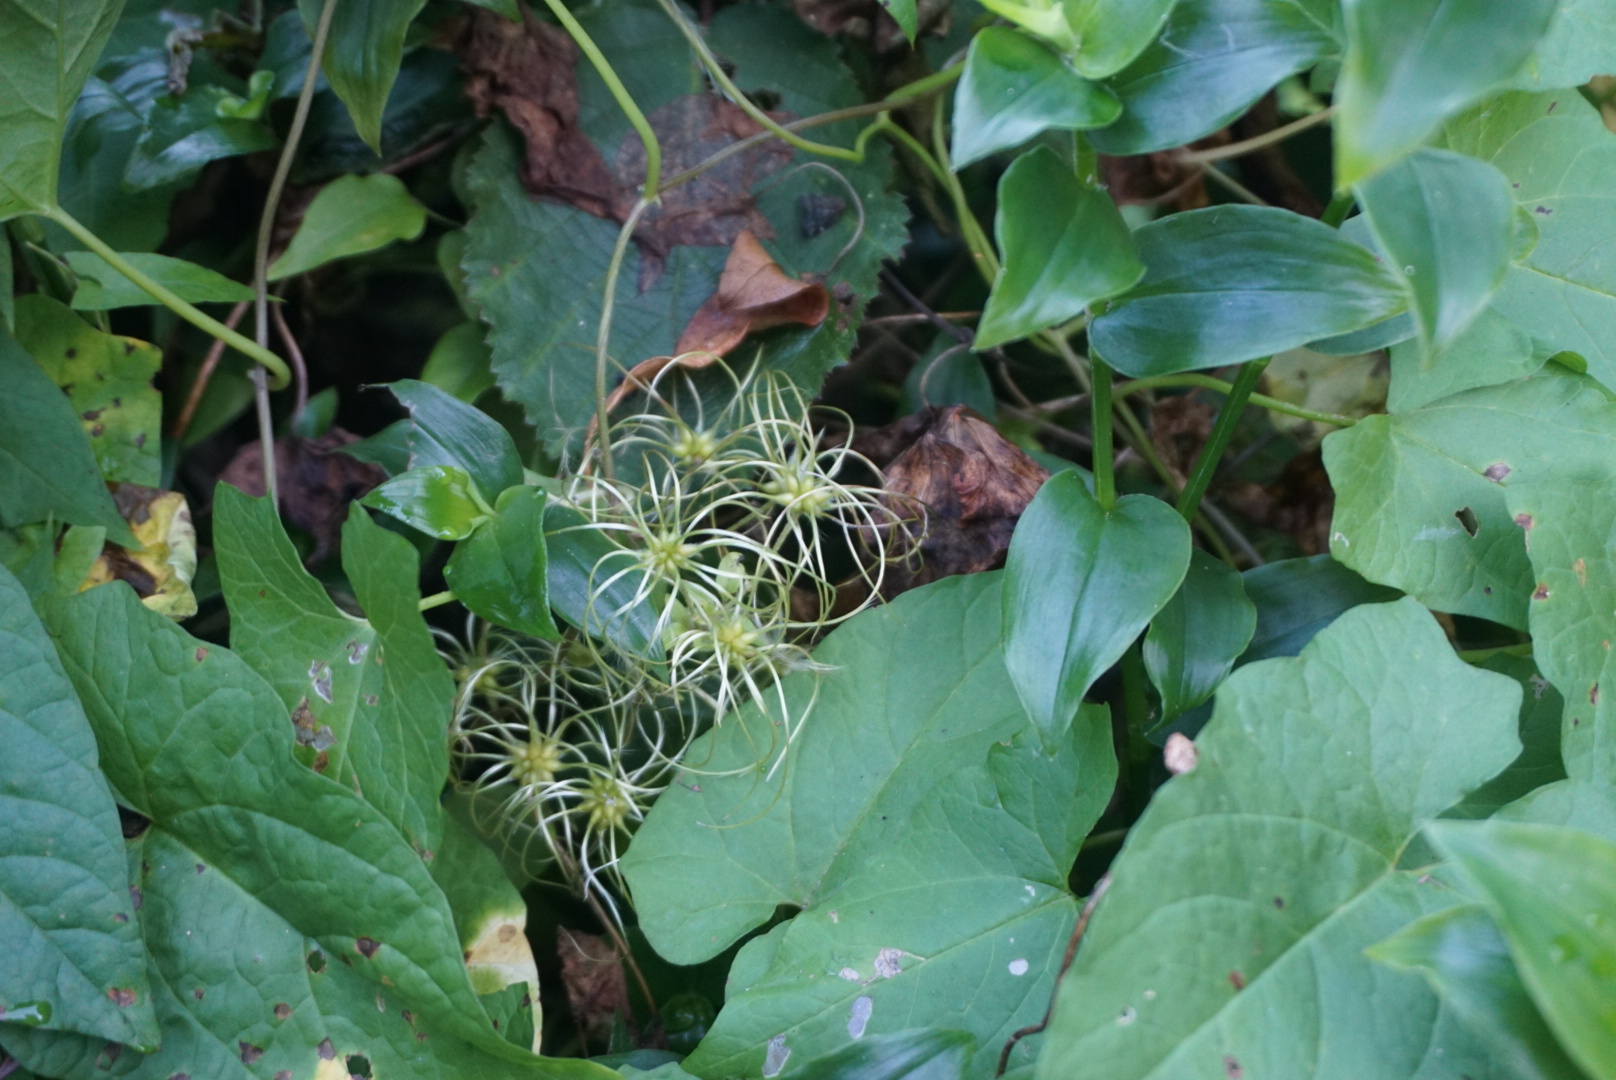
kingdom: Plantae
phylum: Tracheophyta
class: Magnoliopsida
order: Ranunculales
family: Ranunculaceae
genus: Clematis
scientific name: Clematis vitalba
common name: Evergreen clematis
